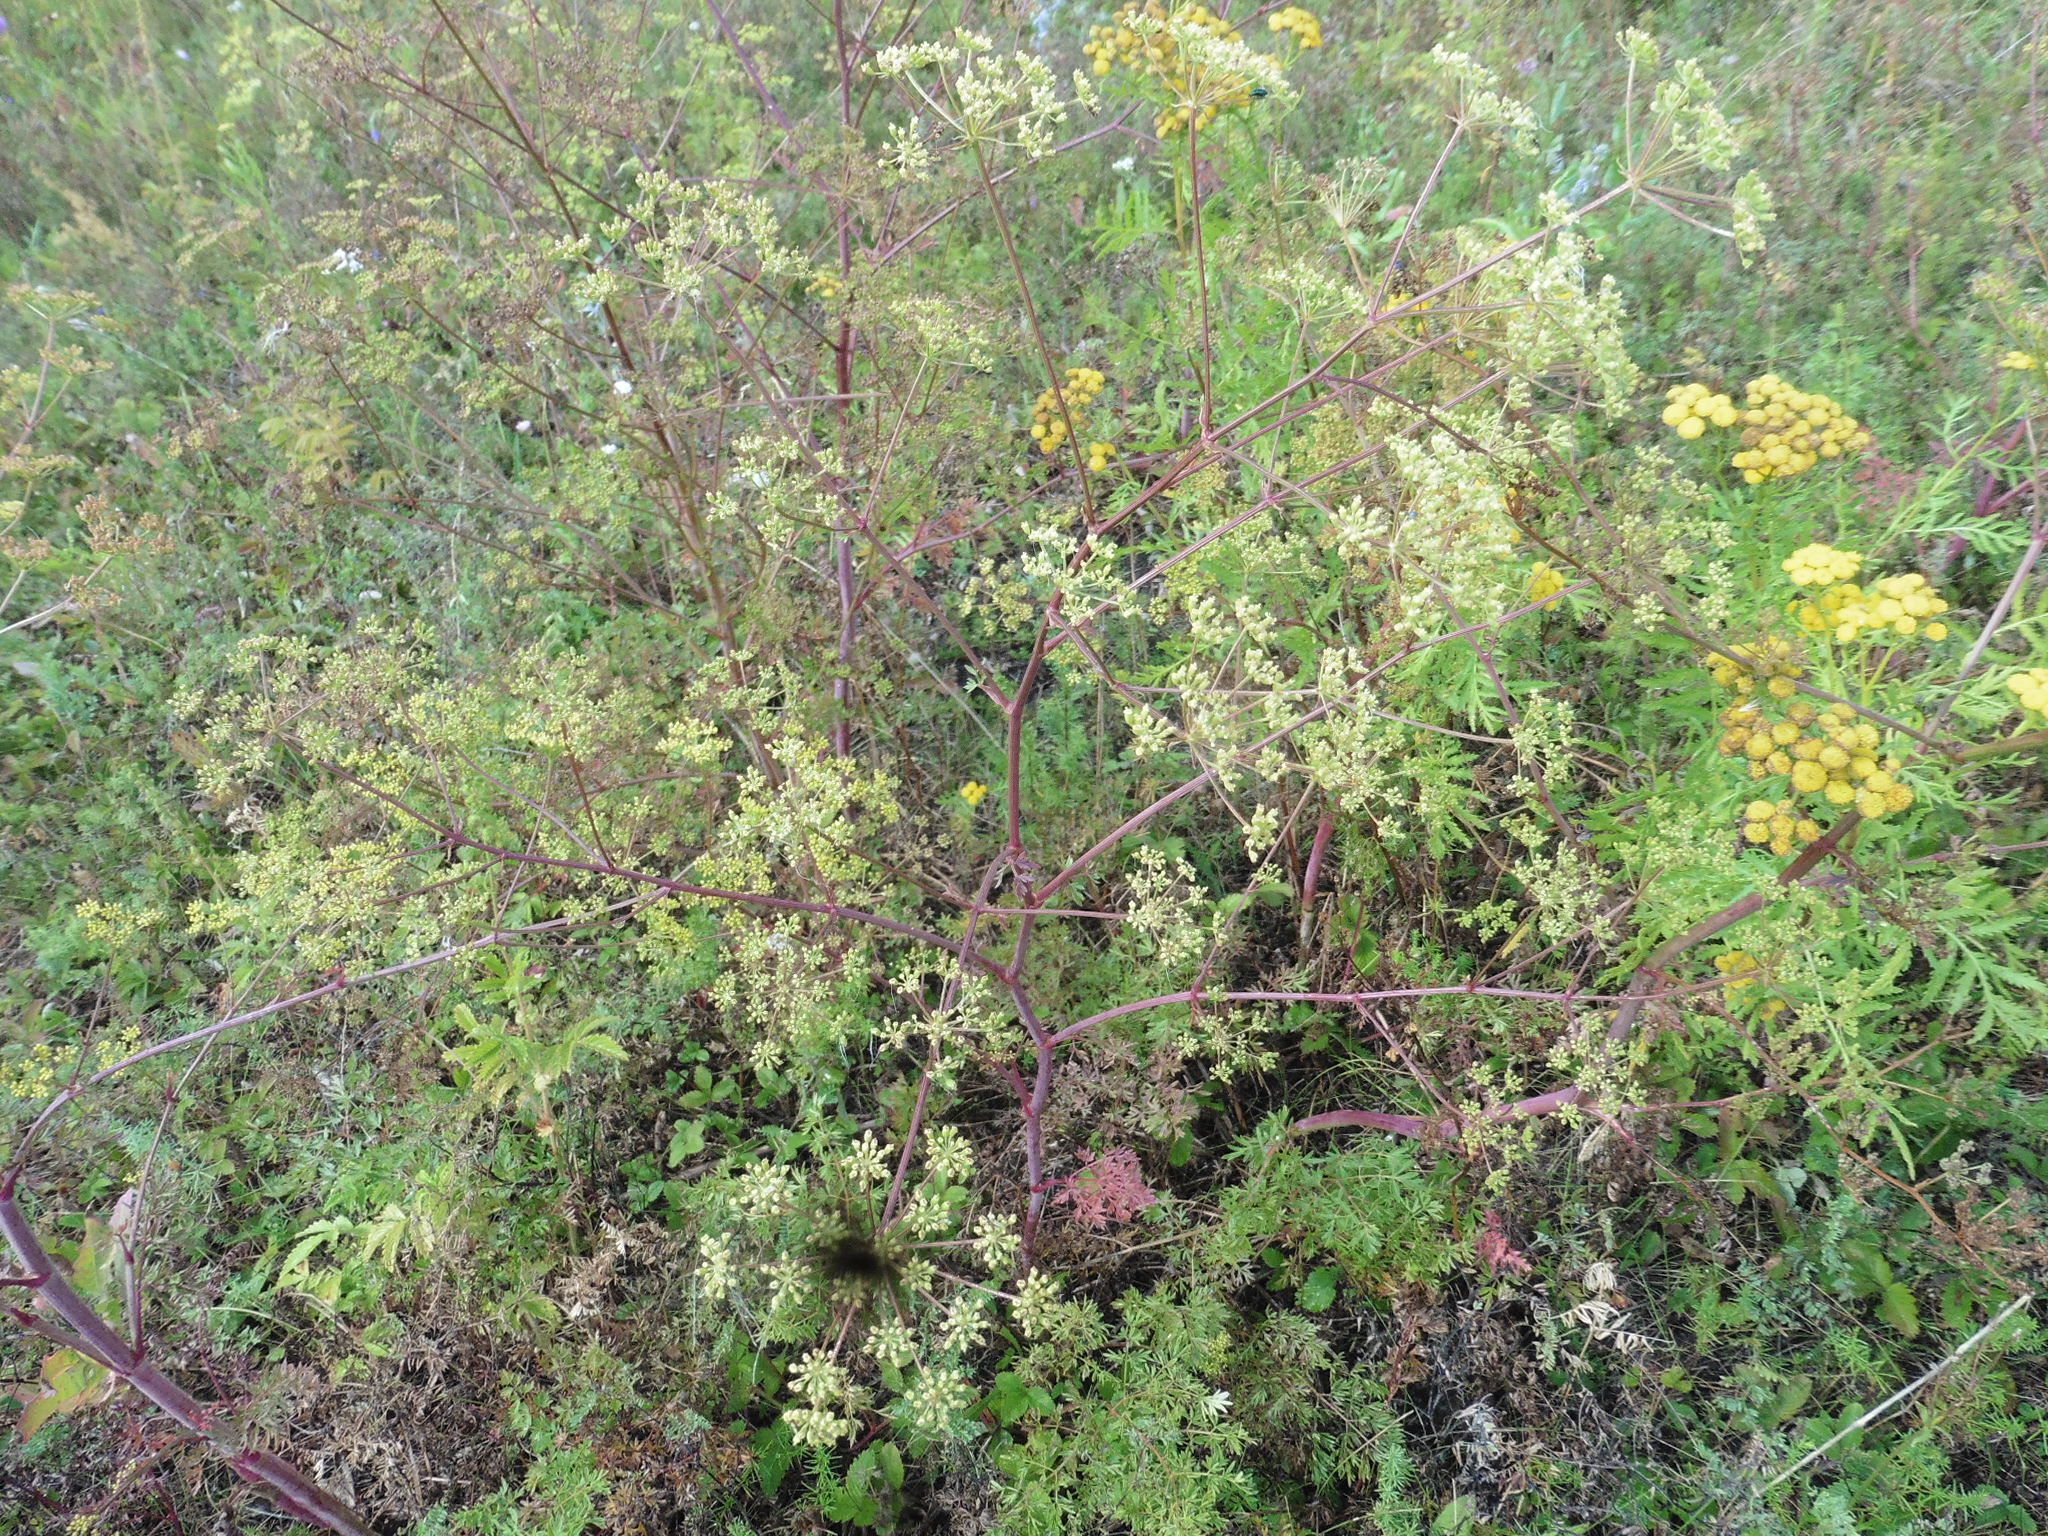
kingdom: Plantae
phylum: Tracheophyta
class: Magnoliopsida
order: Apiales
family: Apiaceae
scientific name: Apiaceae
